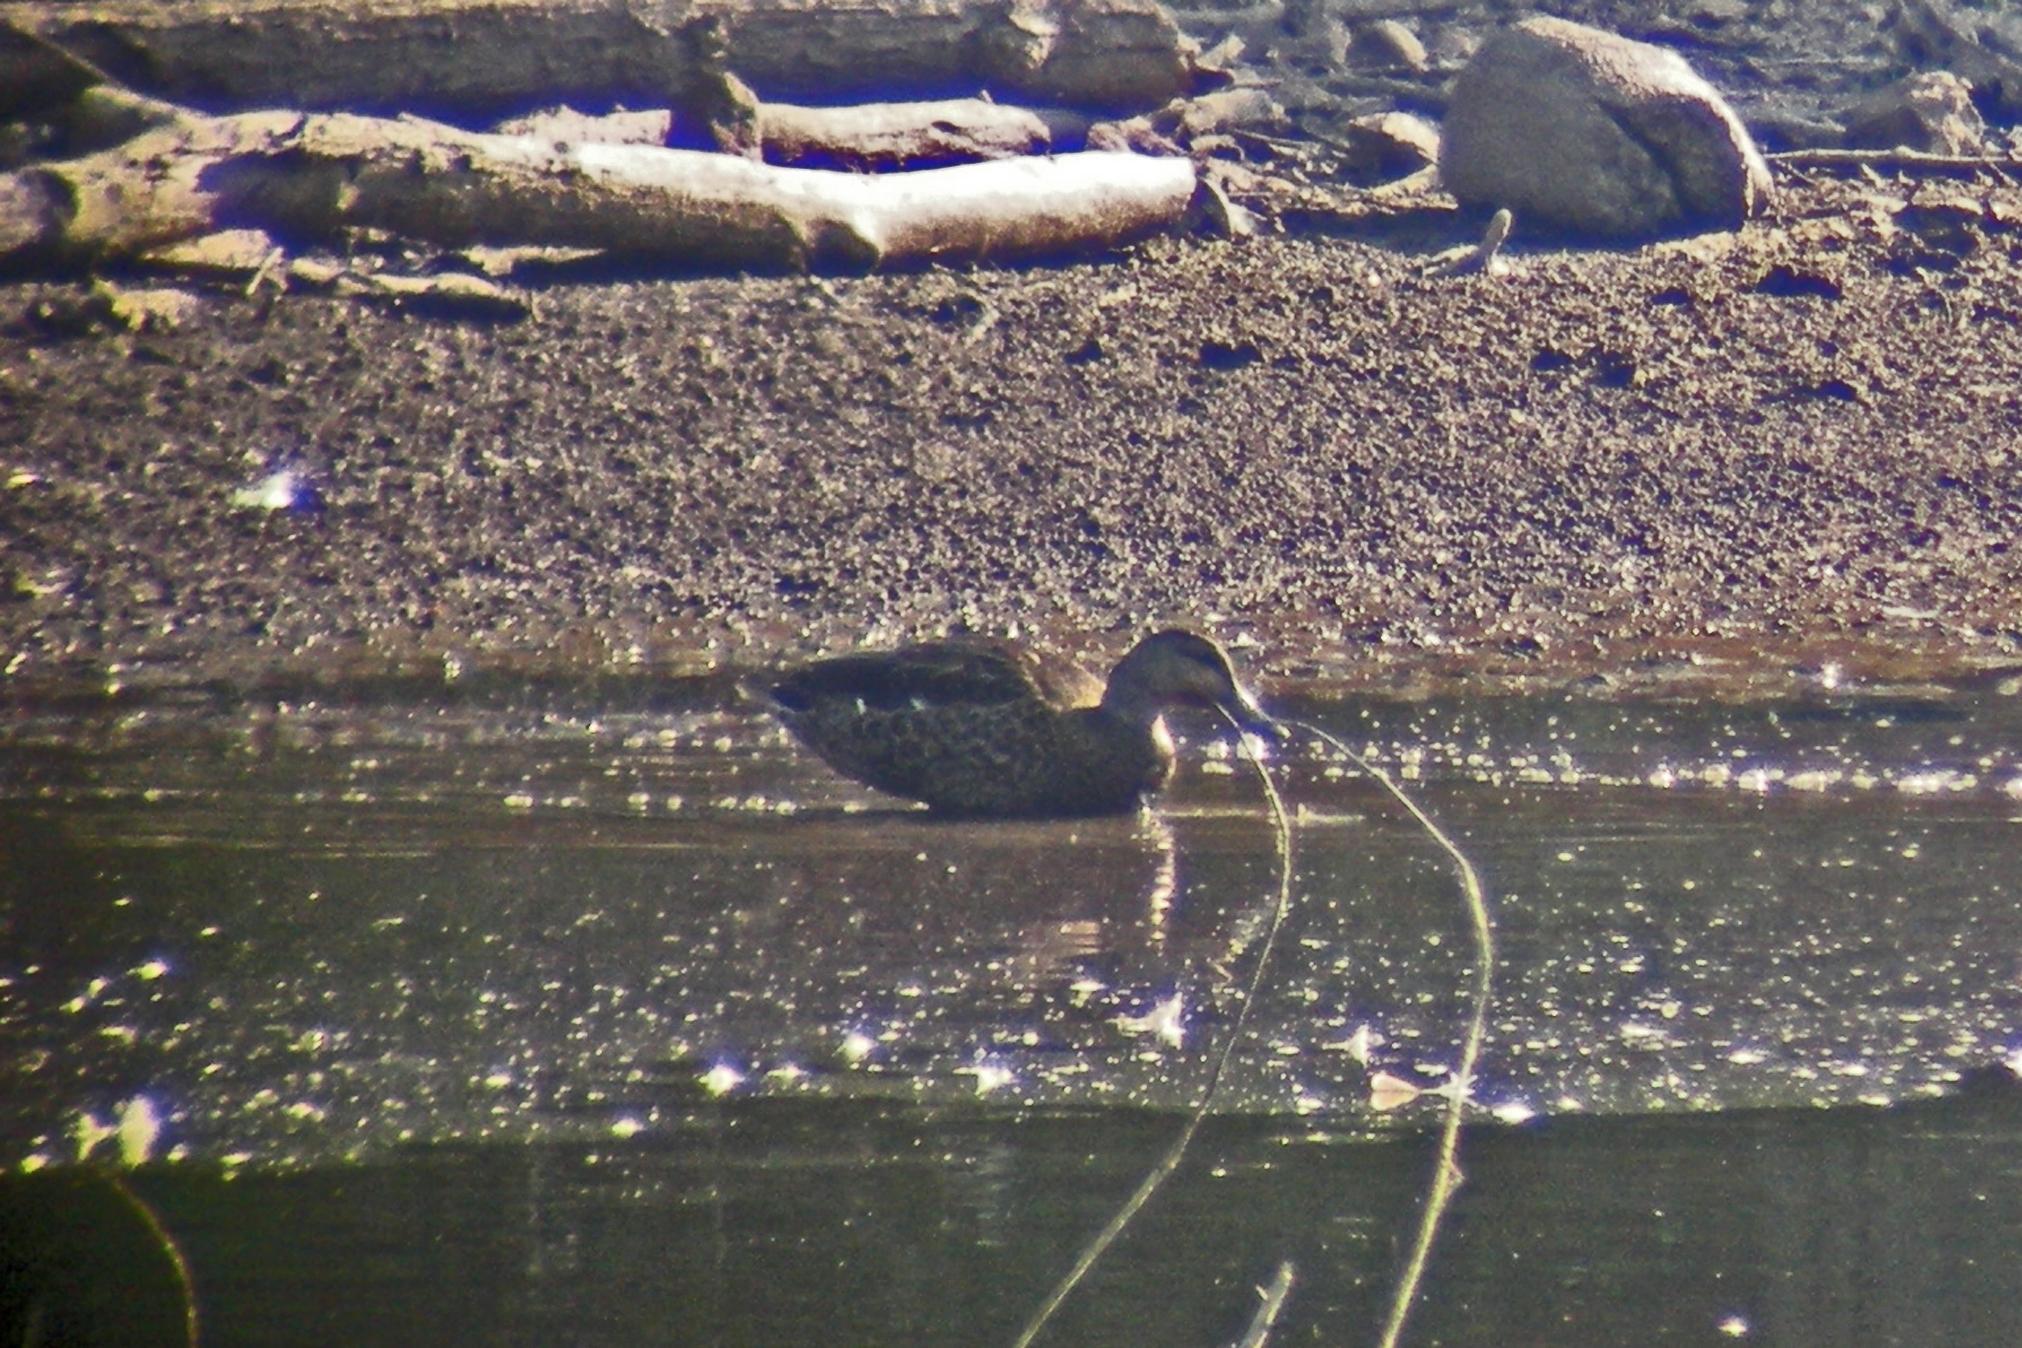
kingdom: Animalia
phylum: Chordata
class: Aves
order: Anseriformes
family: Anatidae
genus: Anas
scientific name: Anas platyrhynchos
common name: Mallard
